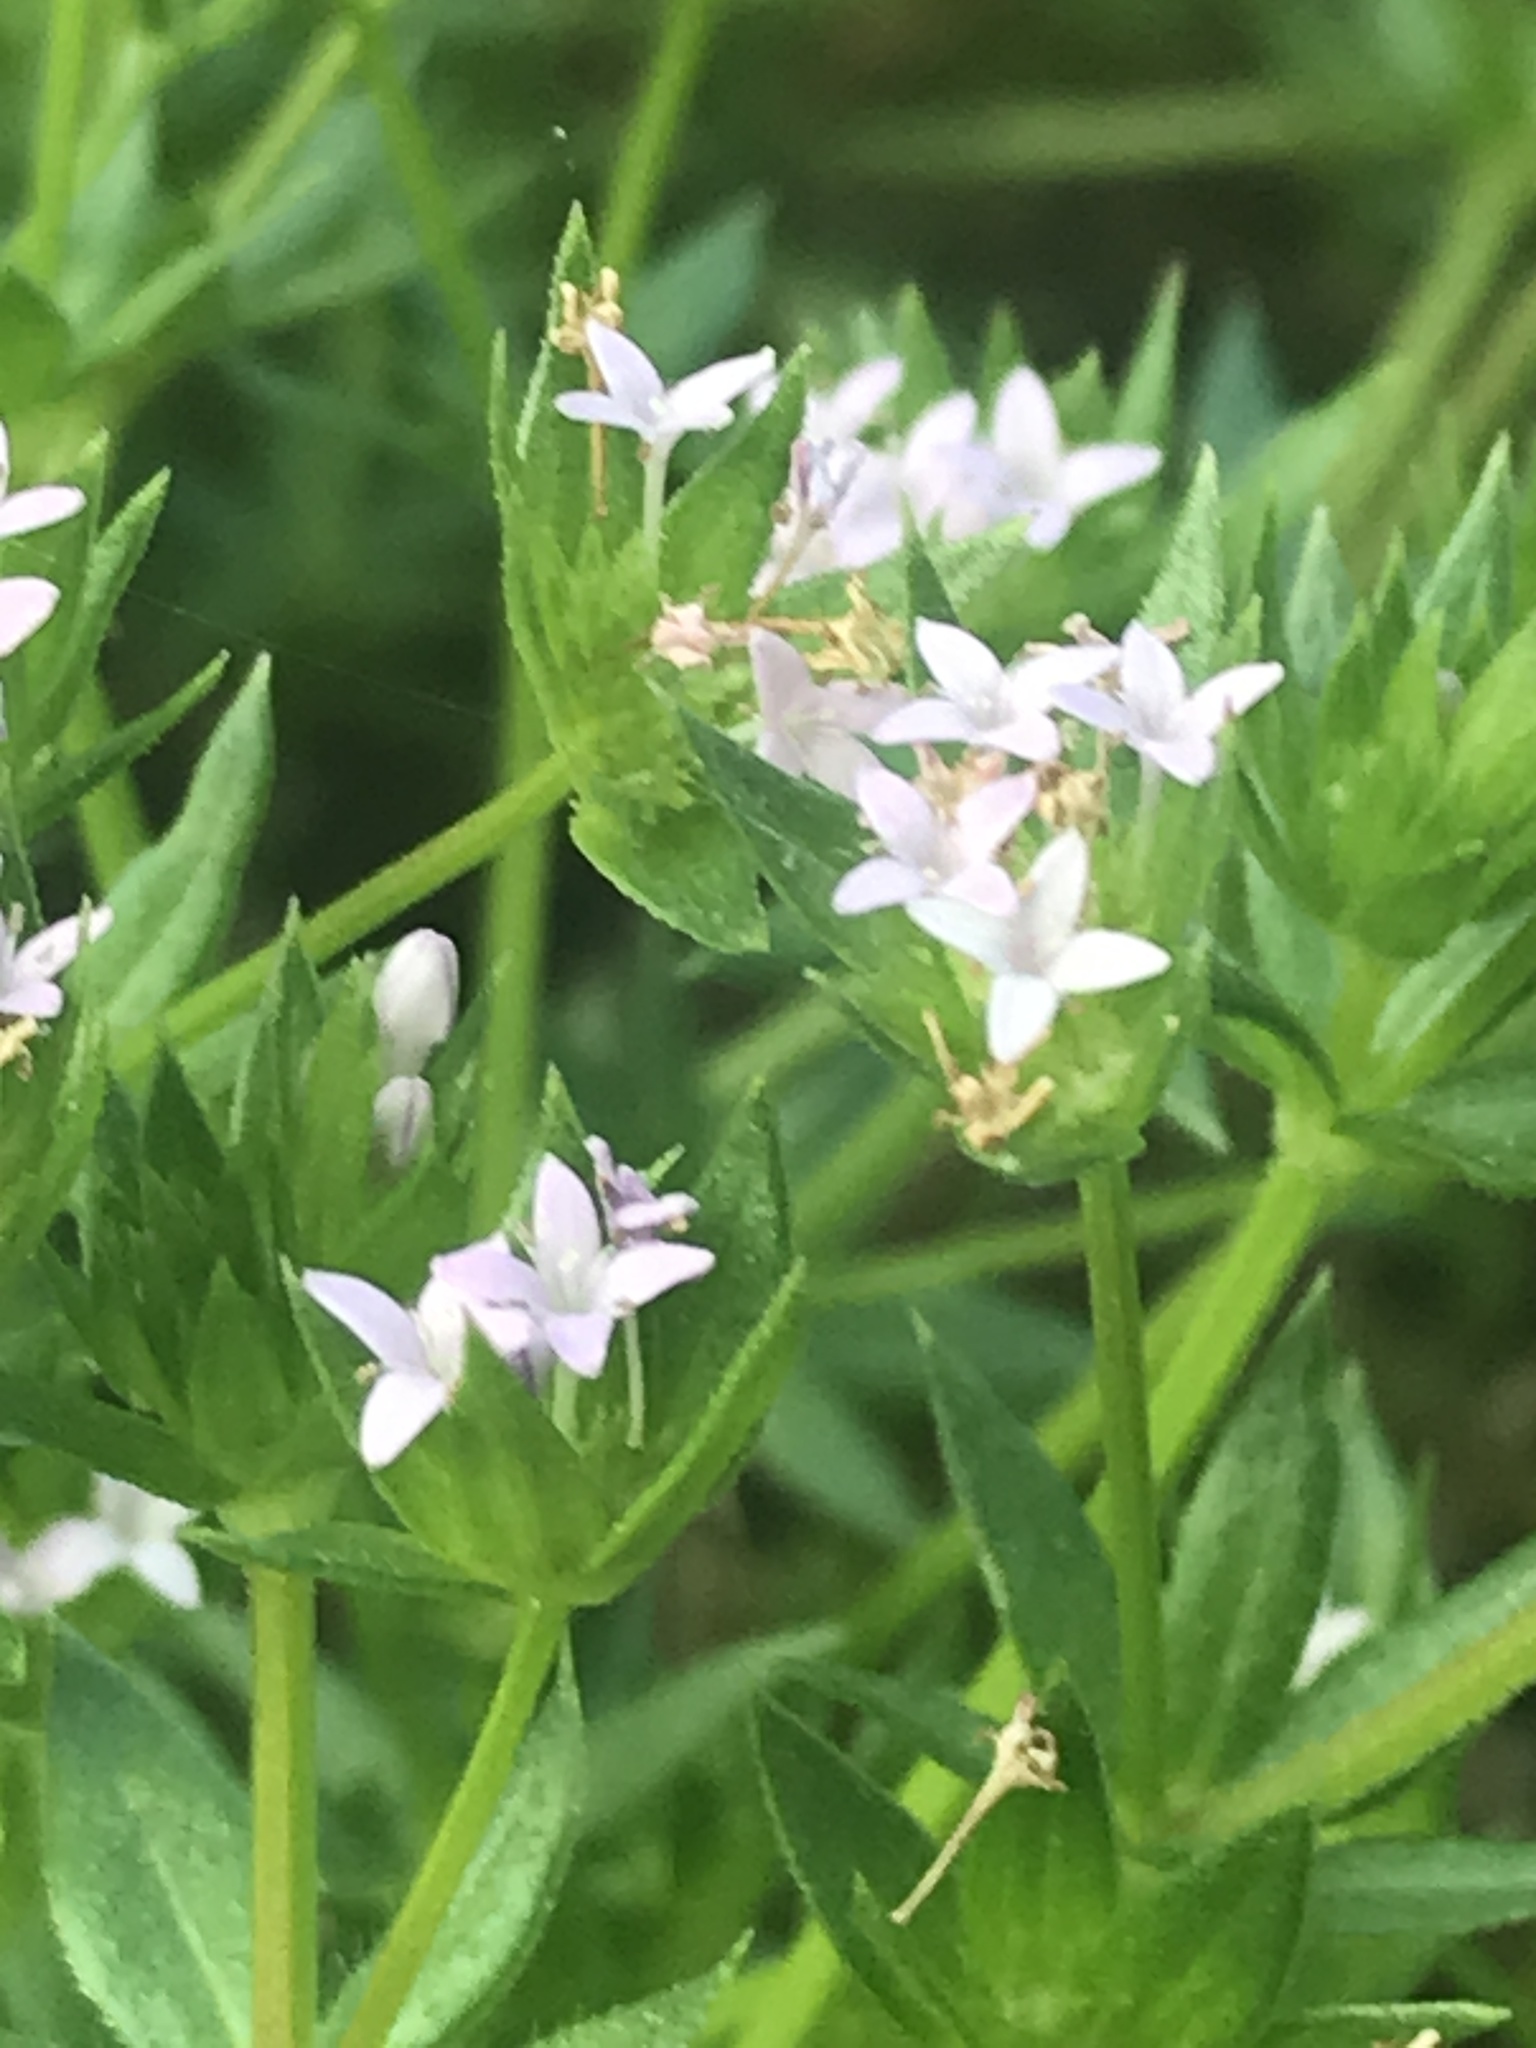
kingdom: Plantae
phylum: Tracheophyta
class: Magnoliopsida
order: Gentianales
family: Rubiaceae
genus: Sherardia
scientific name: Sherardia arvensis
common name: Field madder
